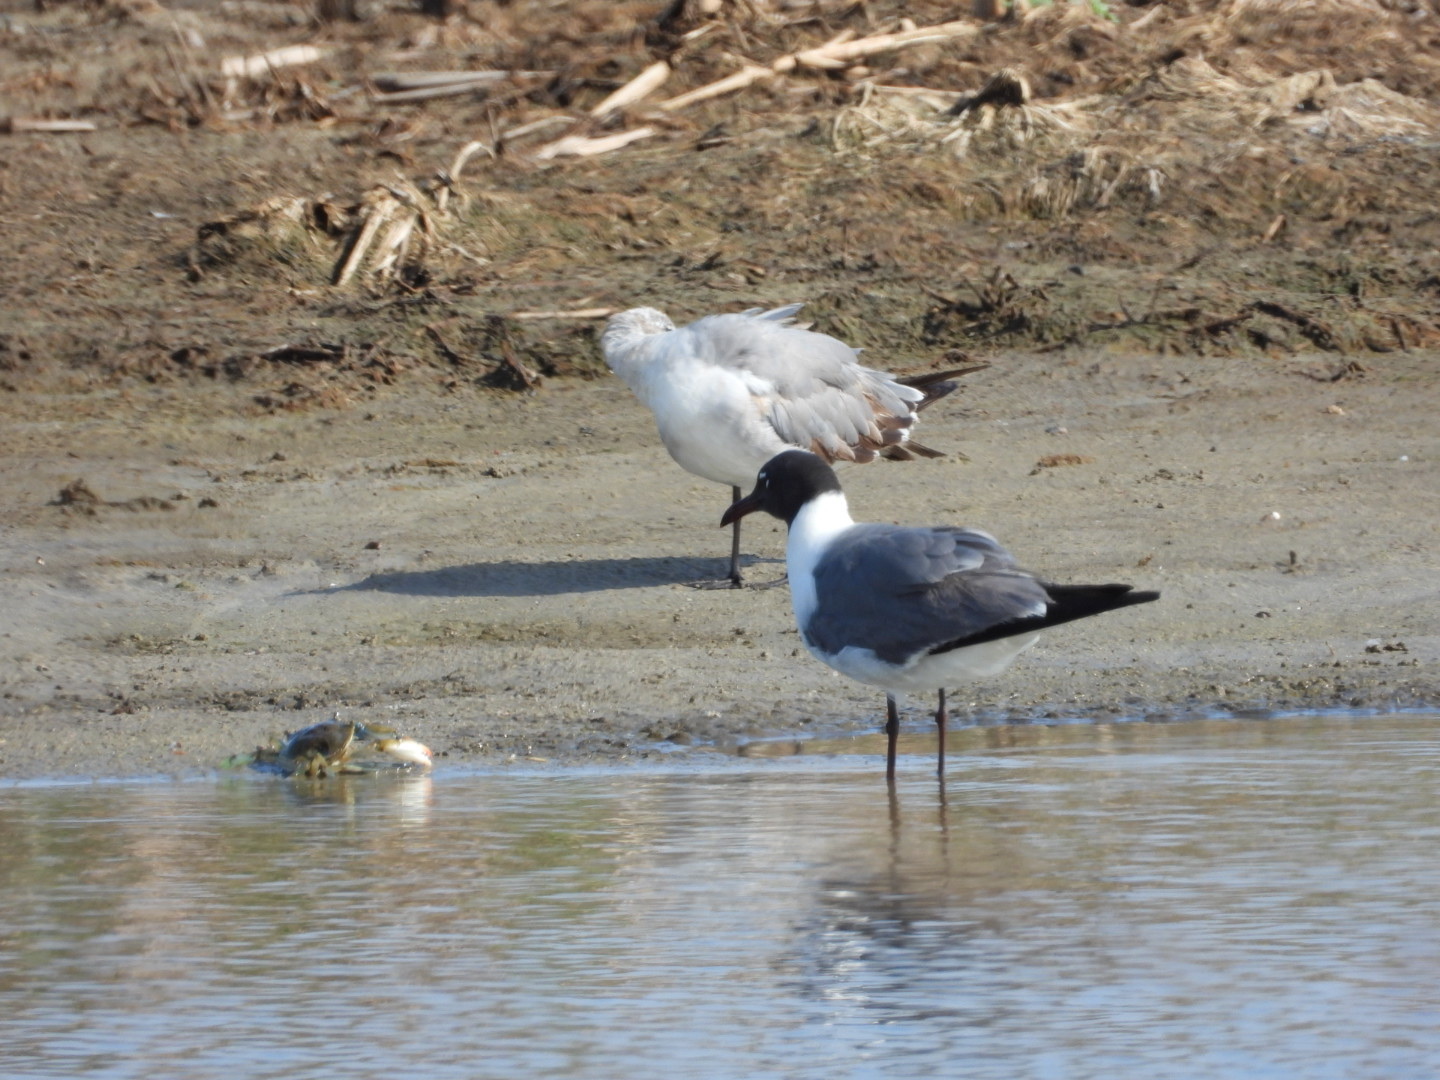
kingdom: Animalia
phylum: Chordata
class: Aves
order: Charadriiformes
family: Laridae
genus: Leucophaeus
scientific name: Leucophaeus atricilla
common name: Laughing gull
